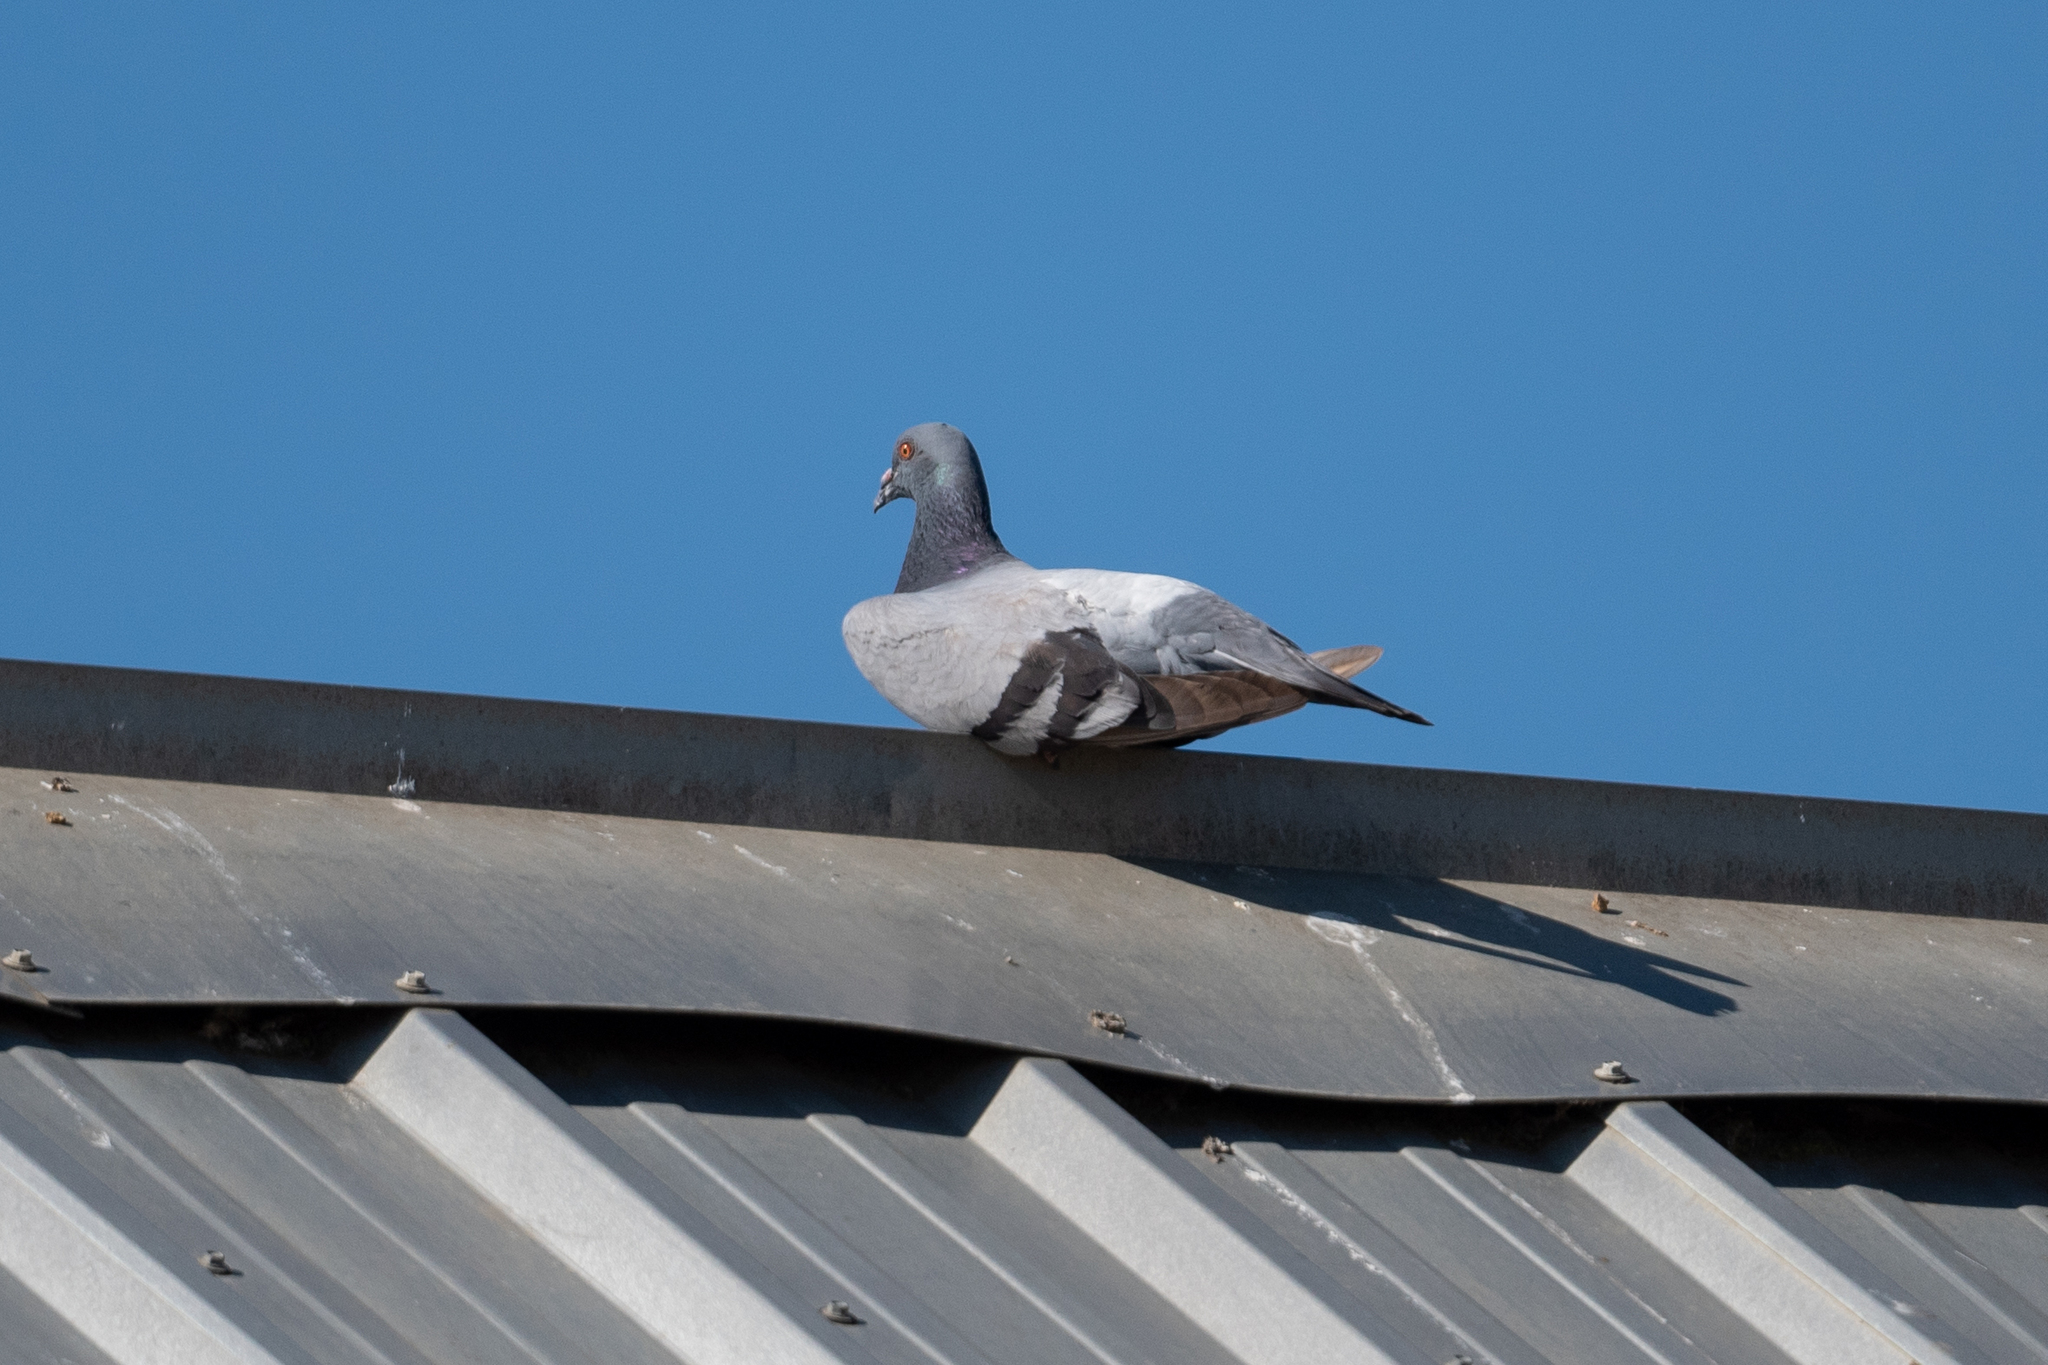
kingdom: Animalia
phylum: Chordata
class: Aves
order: Columbiformes
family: Columbidae
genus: Columba
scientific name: Columba livia
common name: Rock pigeon
